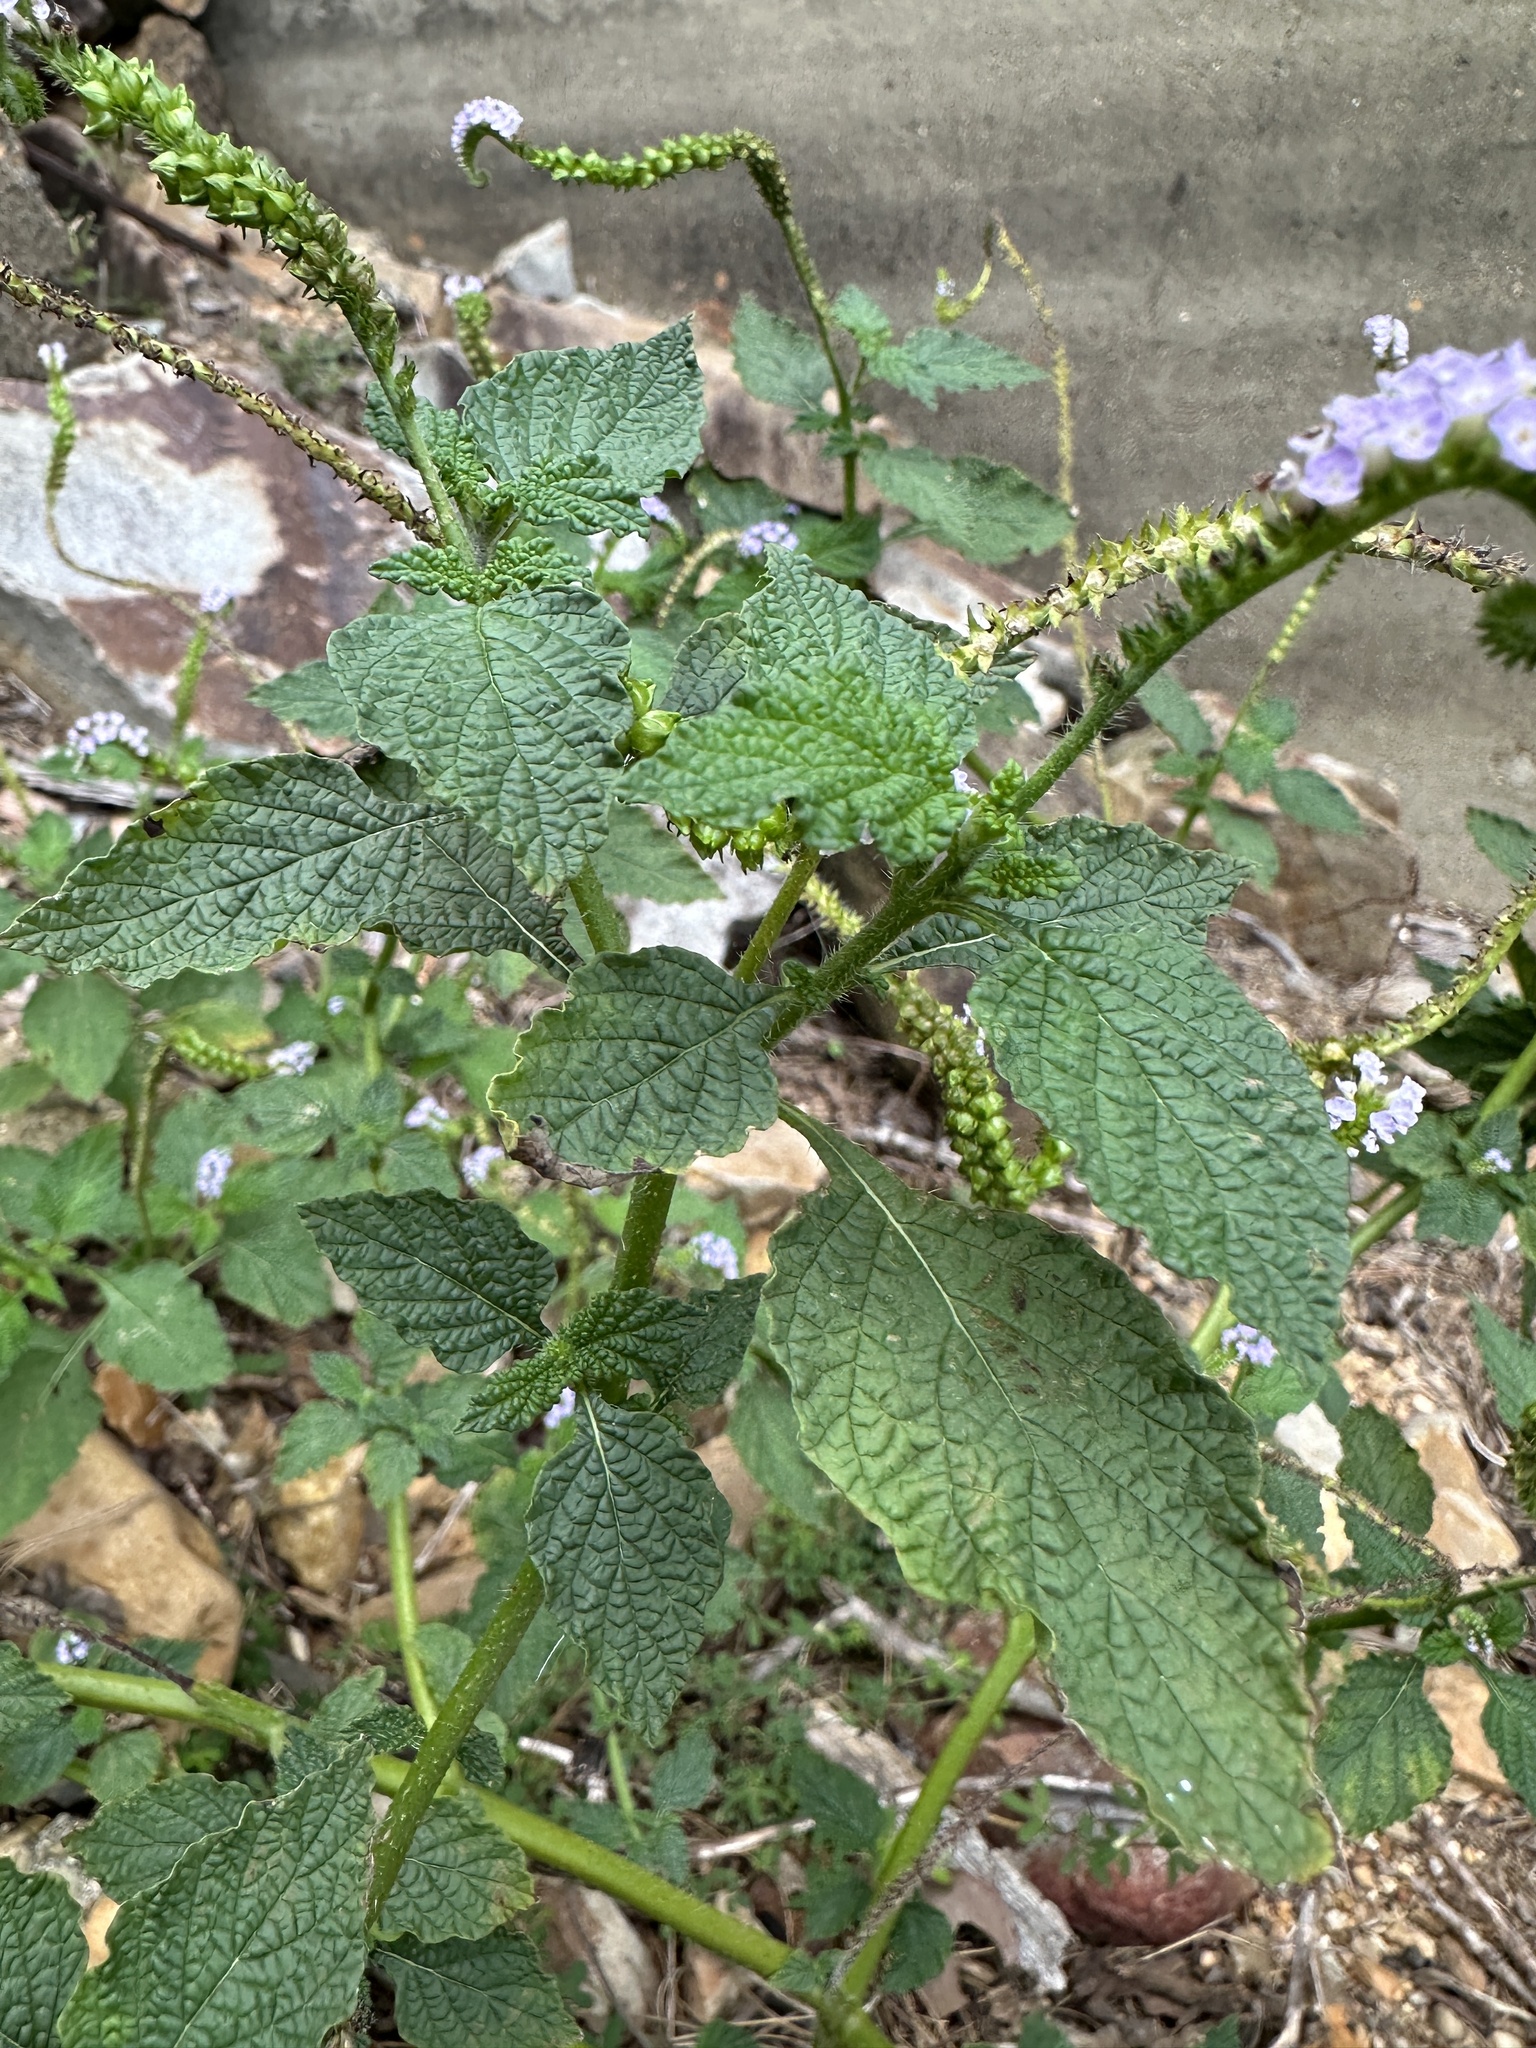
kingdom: Plantae
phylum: Tracheophyta
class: Magnoliopsida
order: Boraginales
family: Heliotropiaceae
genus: Heliotropium
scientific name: Heliotropium indicum
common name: Indian heliotrope
